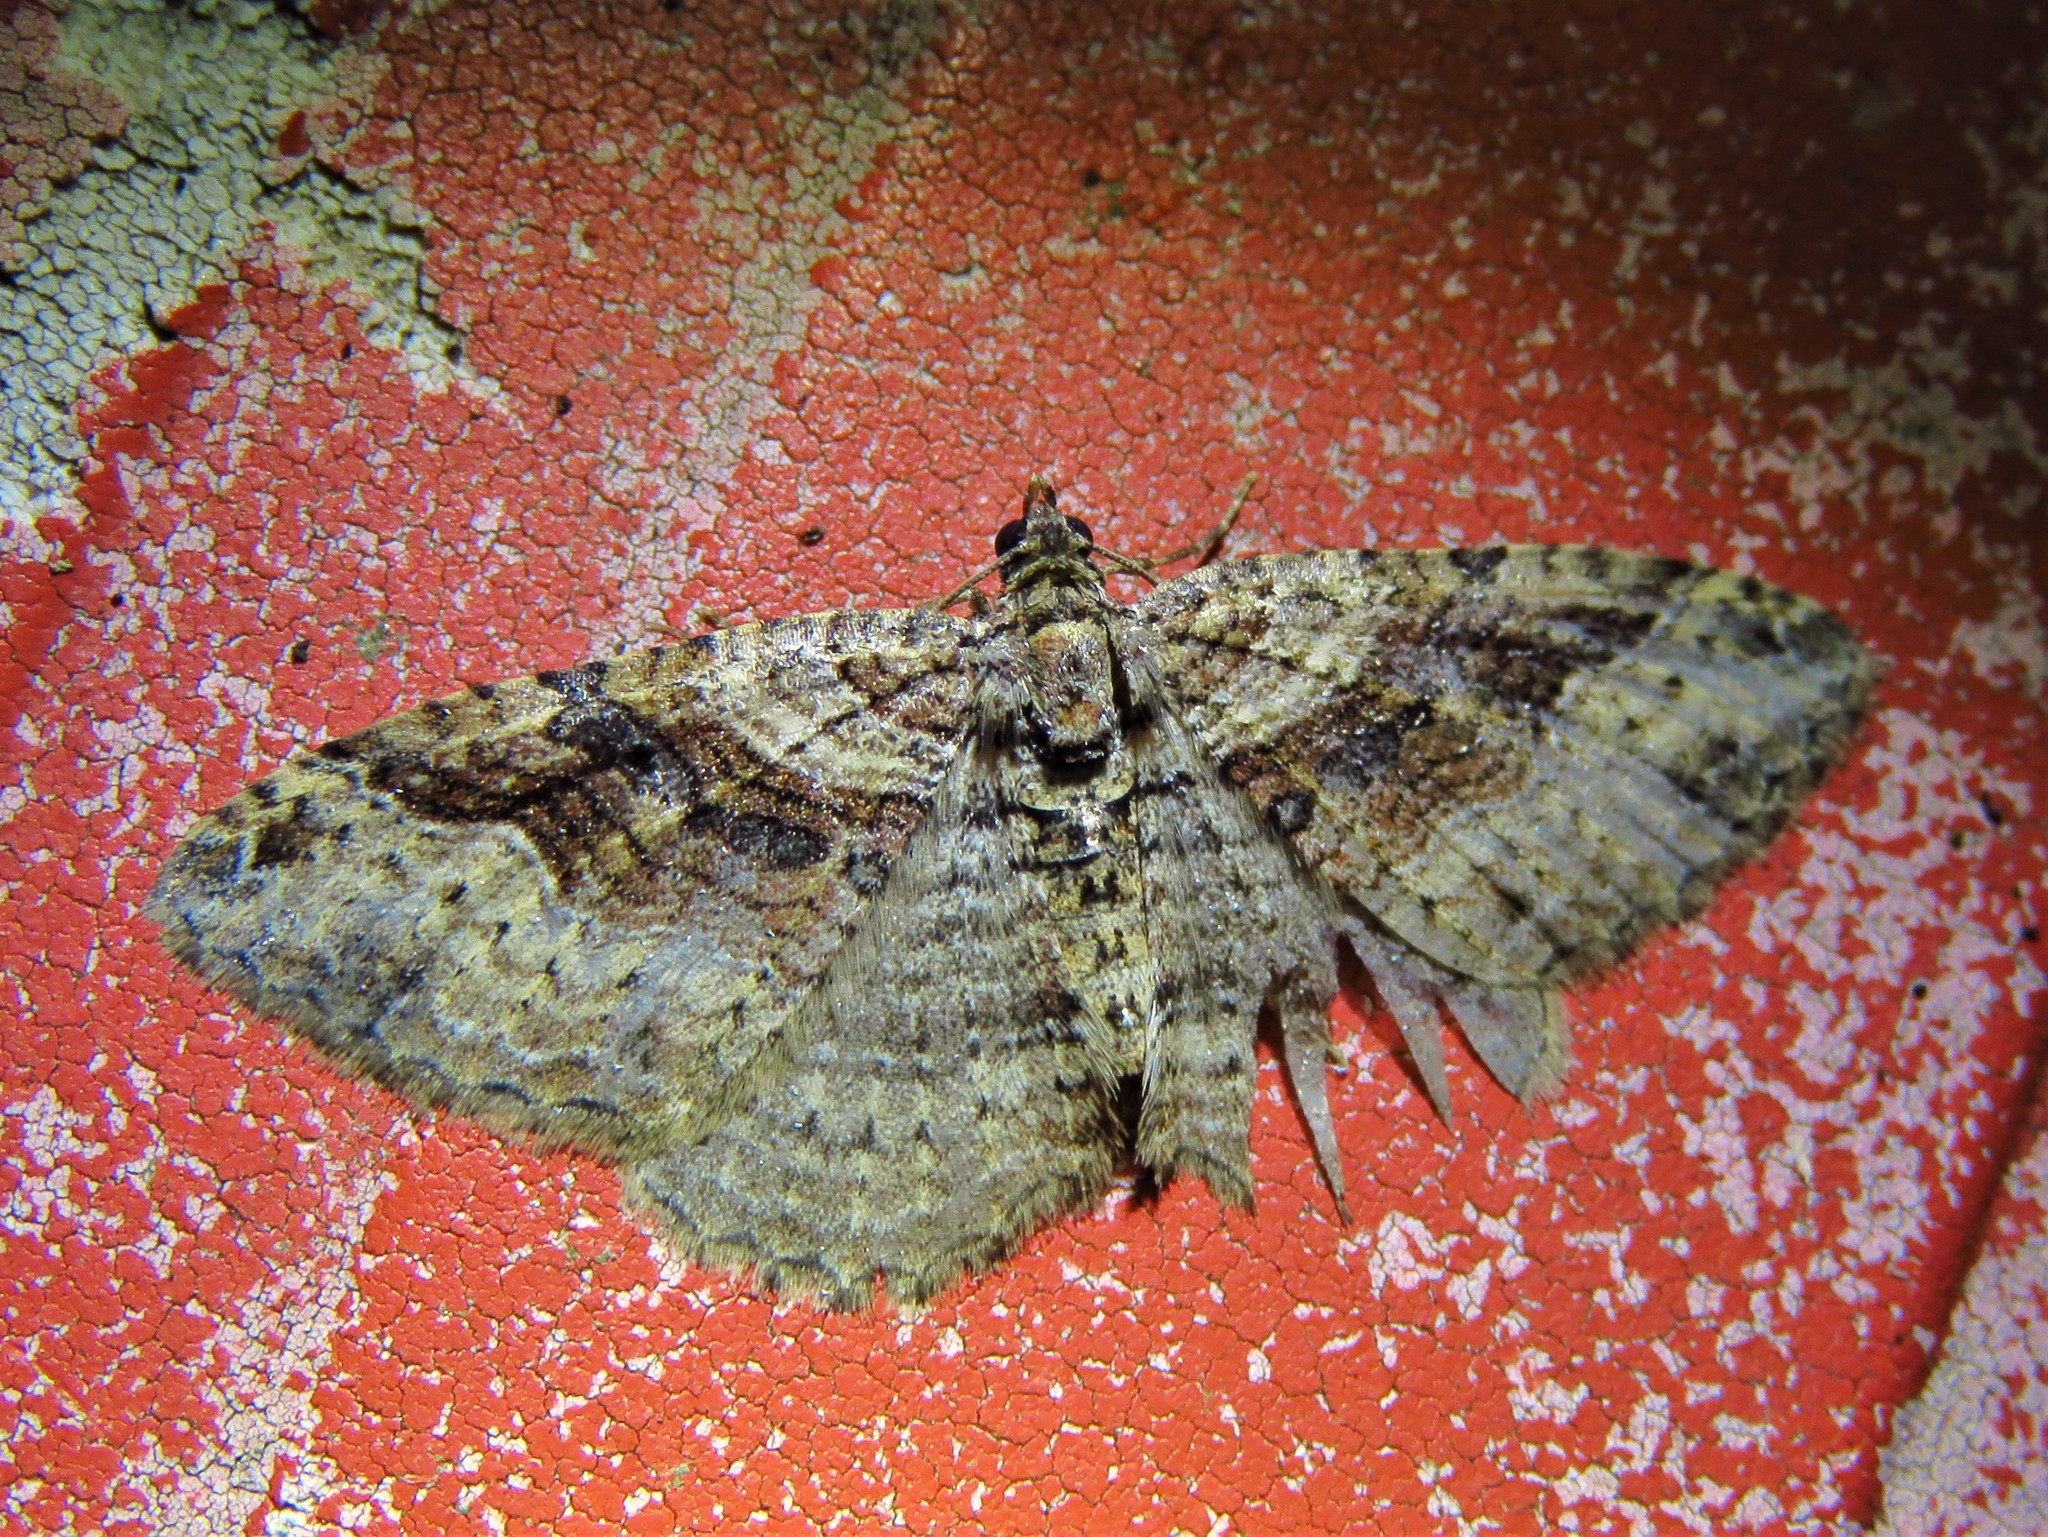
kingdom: Animalia
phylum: Arthropoda
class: Insecta
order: Lepidoptera
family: Geometridae
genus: Costaconvexa
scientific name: Costaconvexa centrostrigaria
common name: Bent-line carpet
